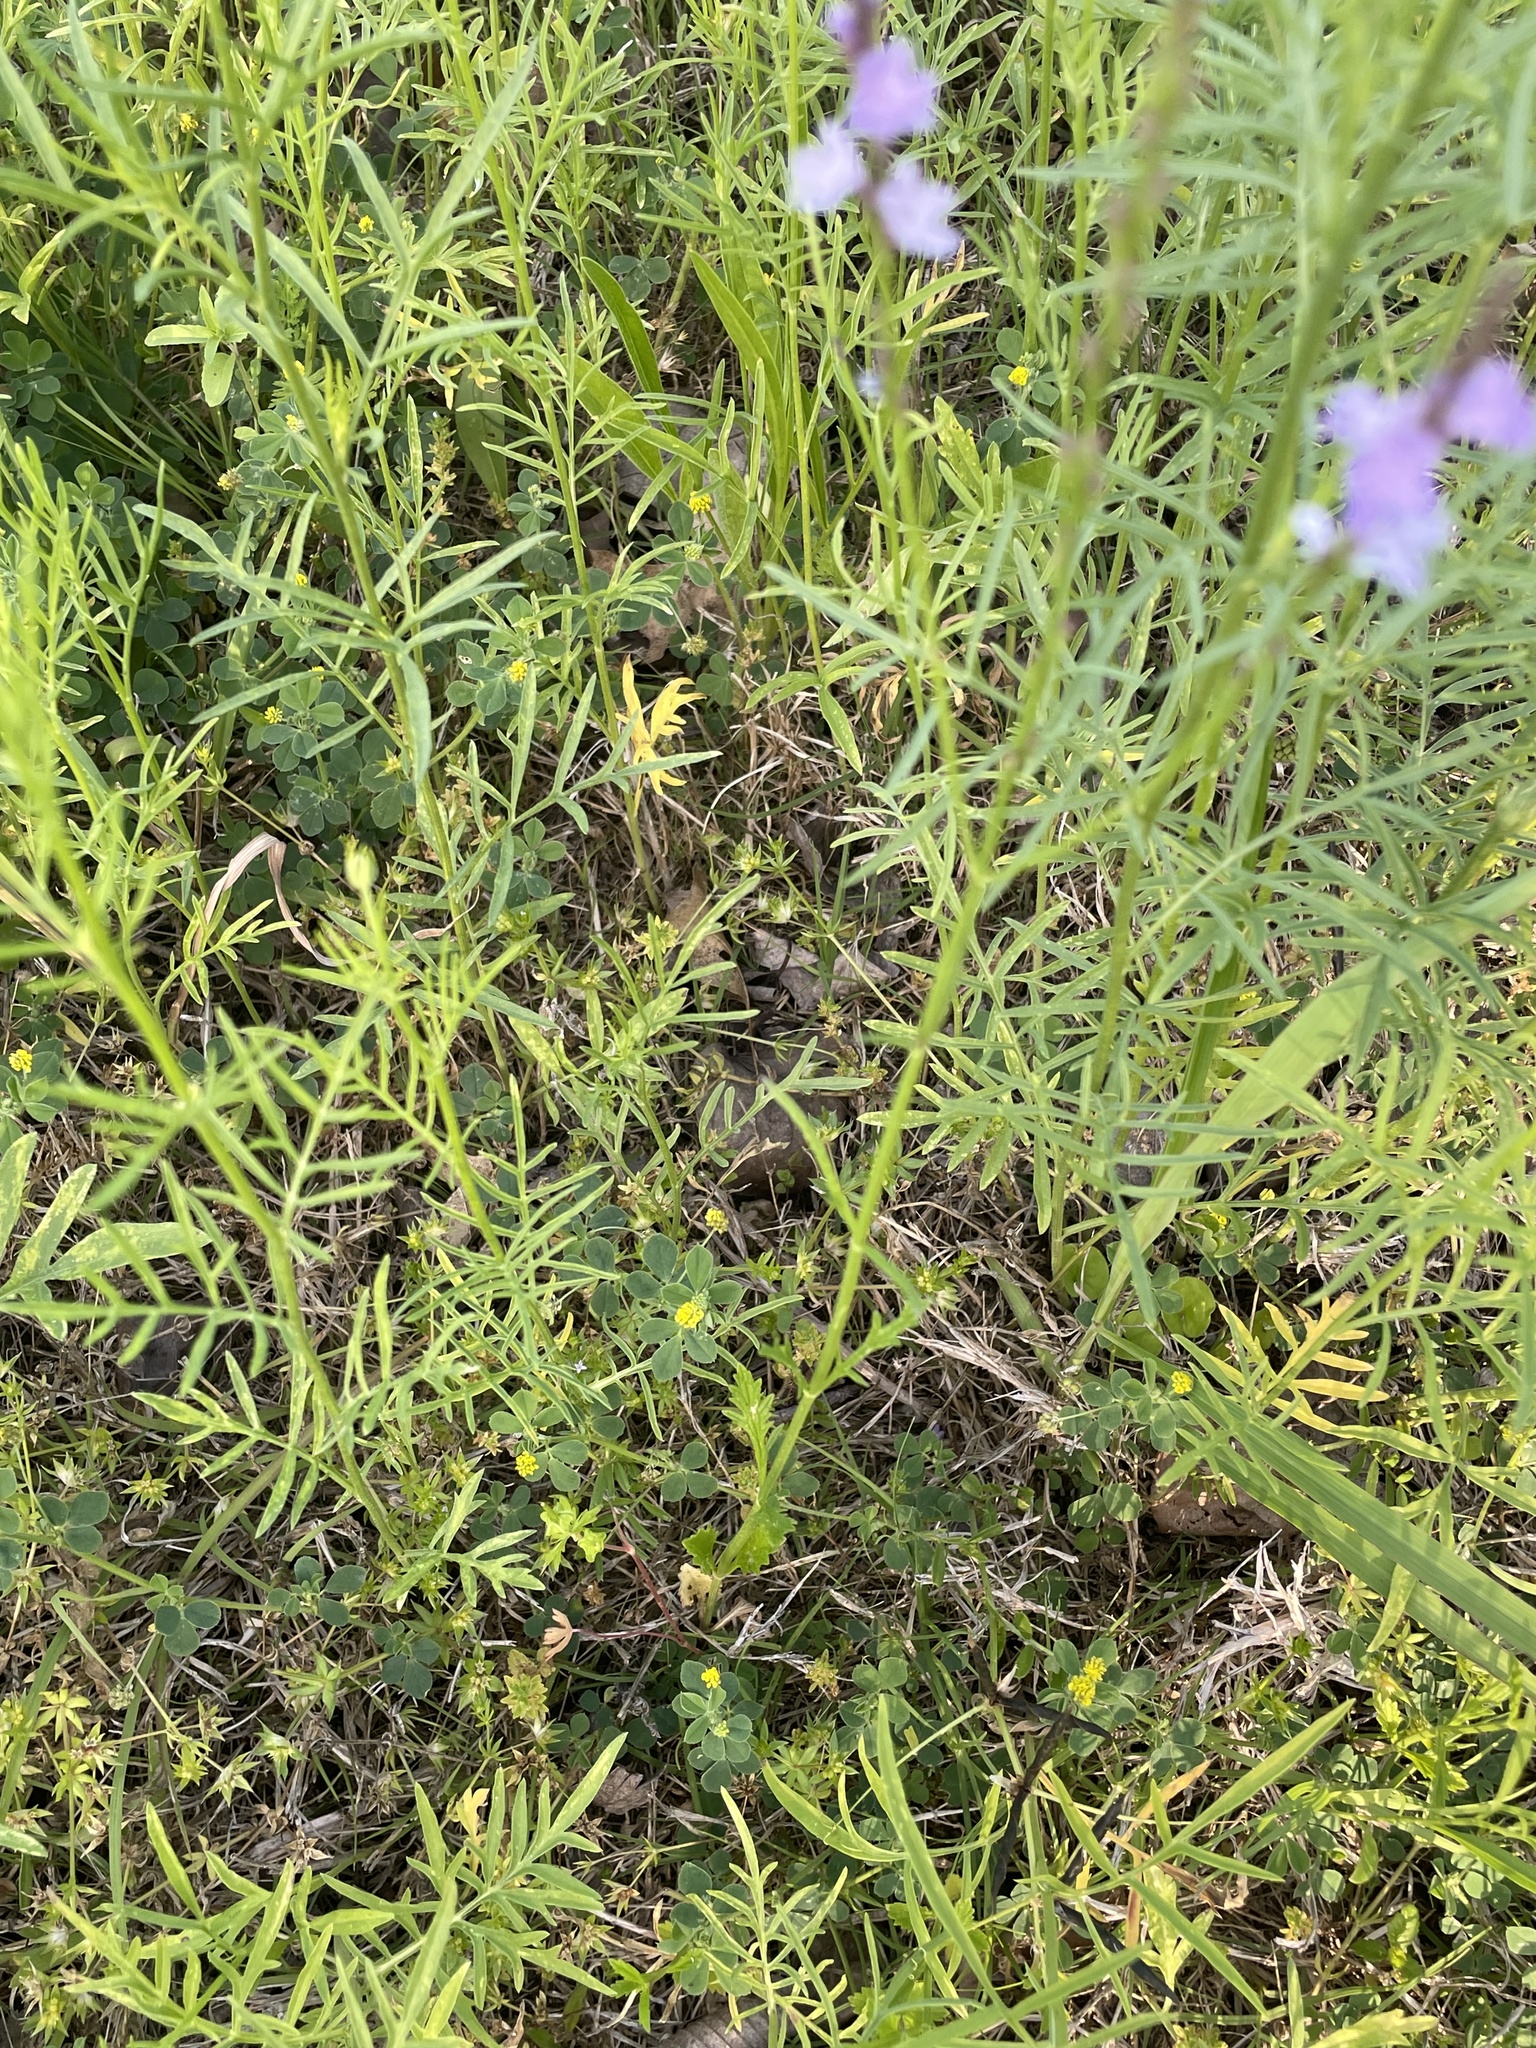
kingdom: Plantae
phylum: Tracheophyta
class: Magnoliopsida
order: Lamiales
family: Verbenaceae
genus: Verbena
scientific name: Verbena halei
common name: Texas vervain
